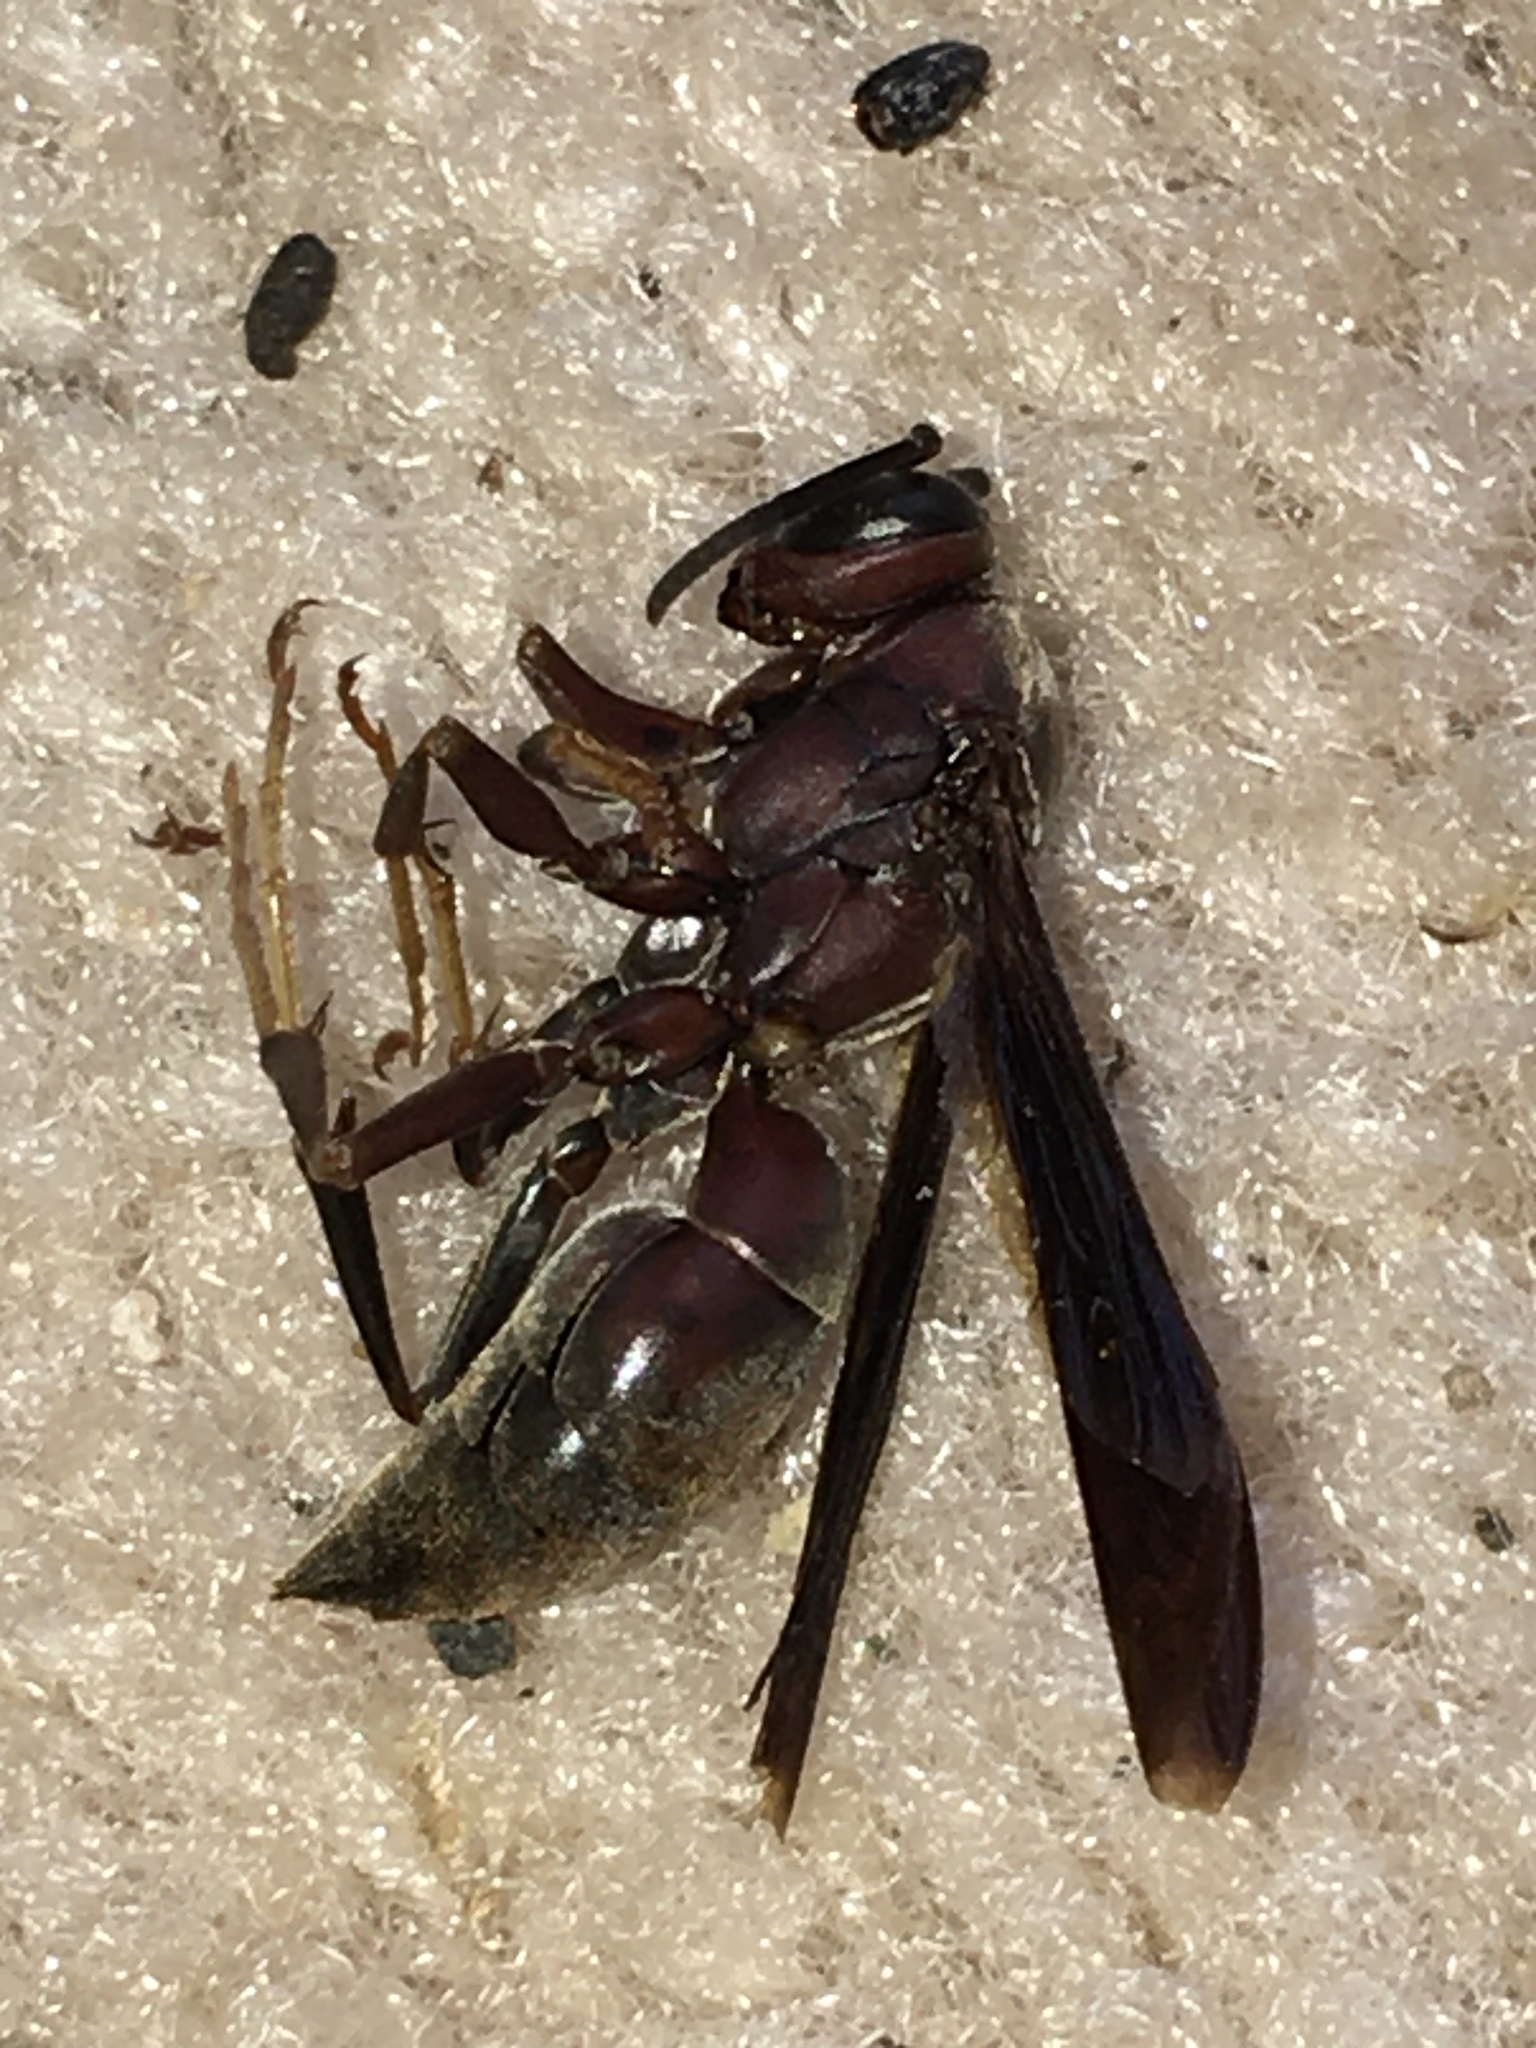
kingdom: Animalia
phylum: Arthropoda
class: Insecta
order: Hymenoptera
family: Eumenidae
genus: Polistes
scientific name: Polistes metricus
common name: Metric paper wasp
